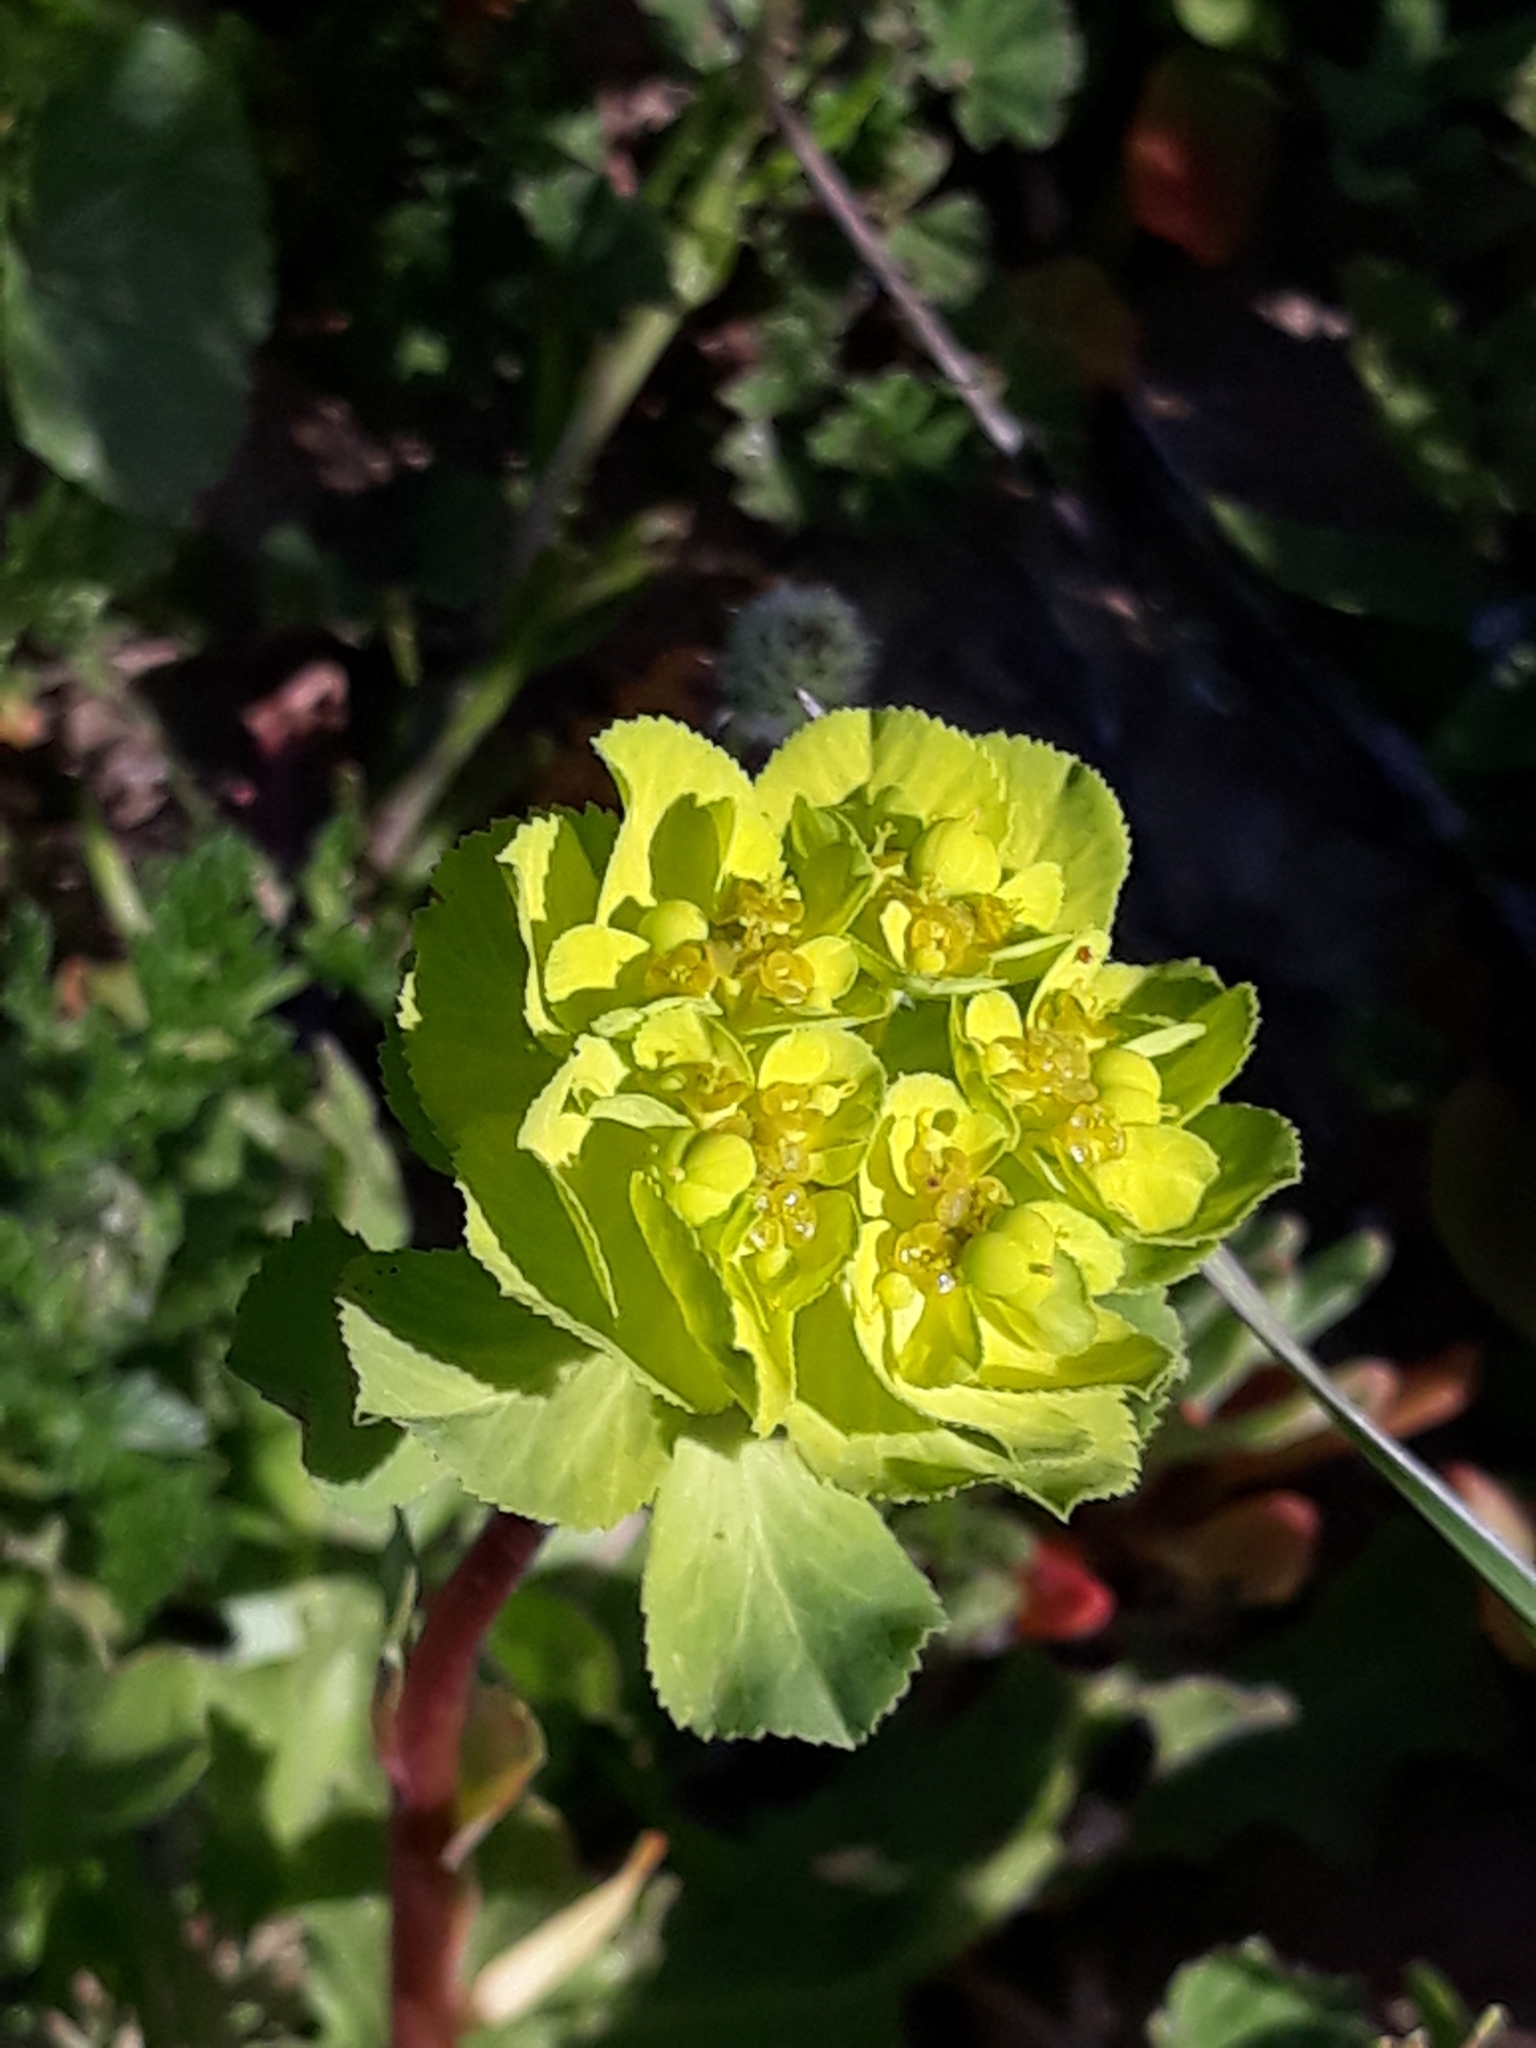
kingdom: Plantae
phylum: Tracheophyta
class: Magnoliopsida
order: Malpighiales
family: Euphorbiaceae
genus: Euphorbia
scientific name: Euphorbia helioscopia
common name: Sun spurge
